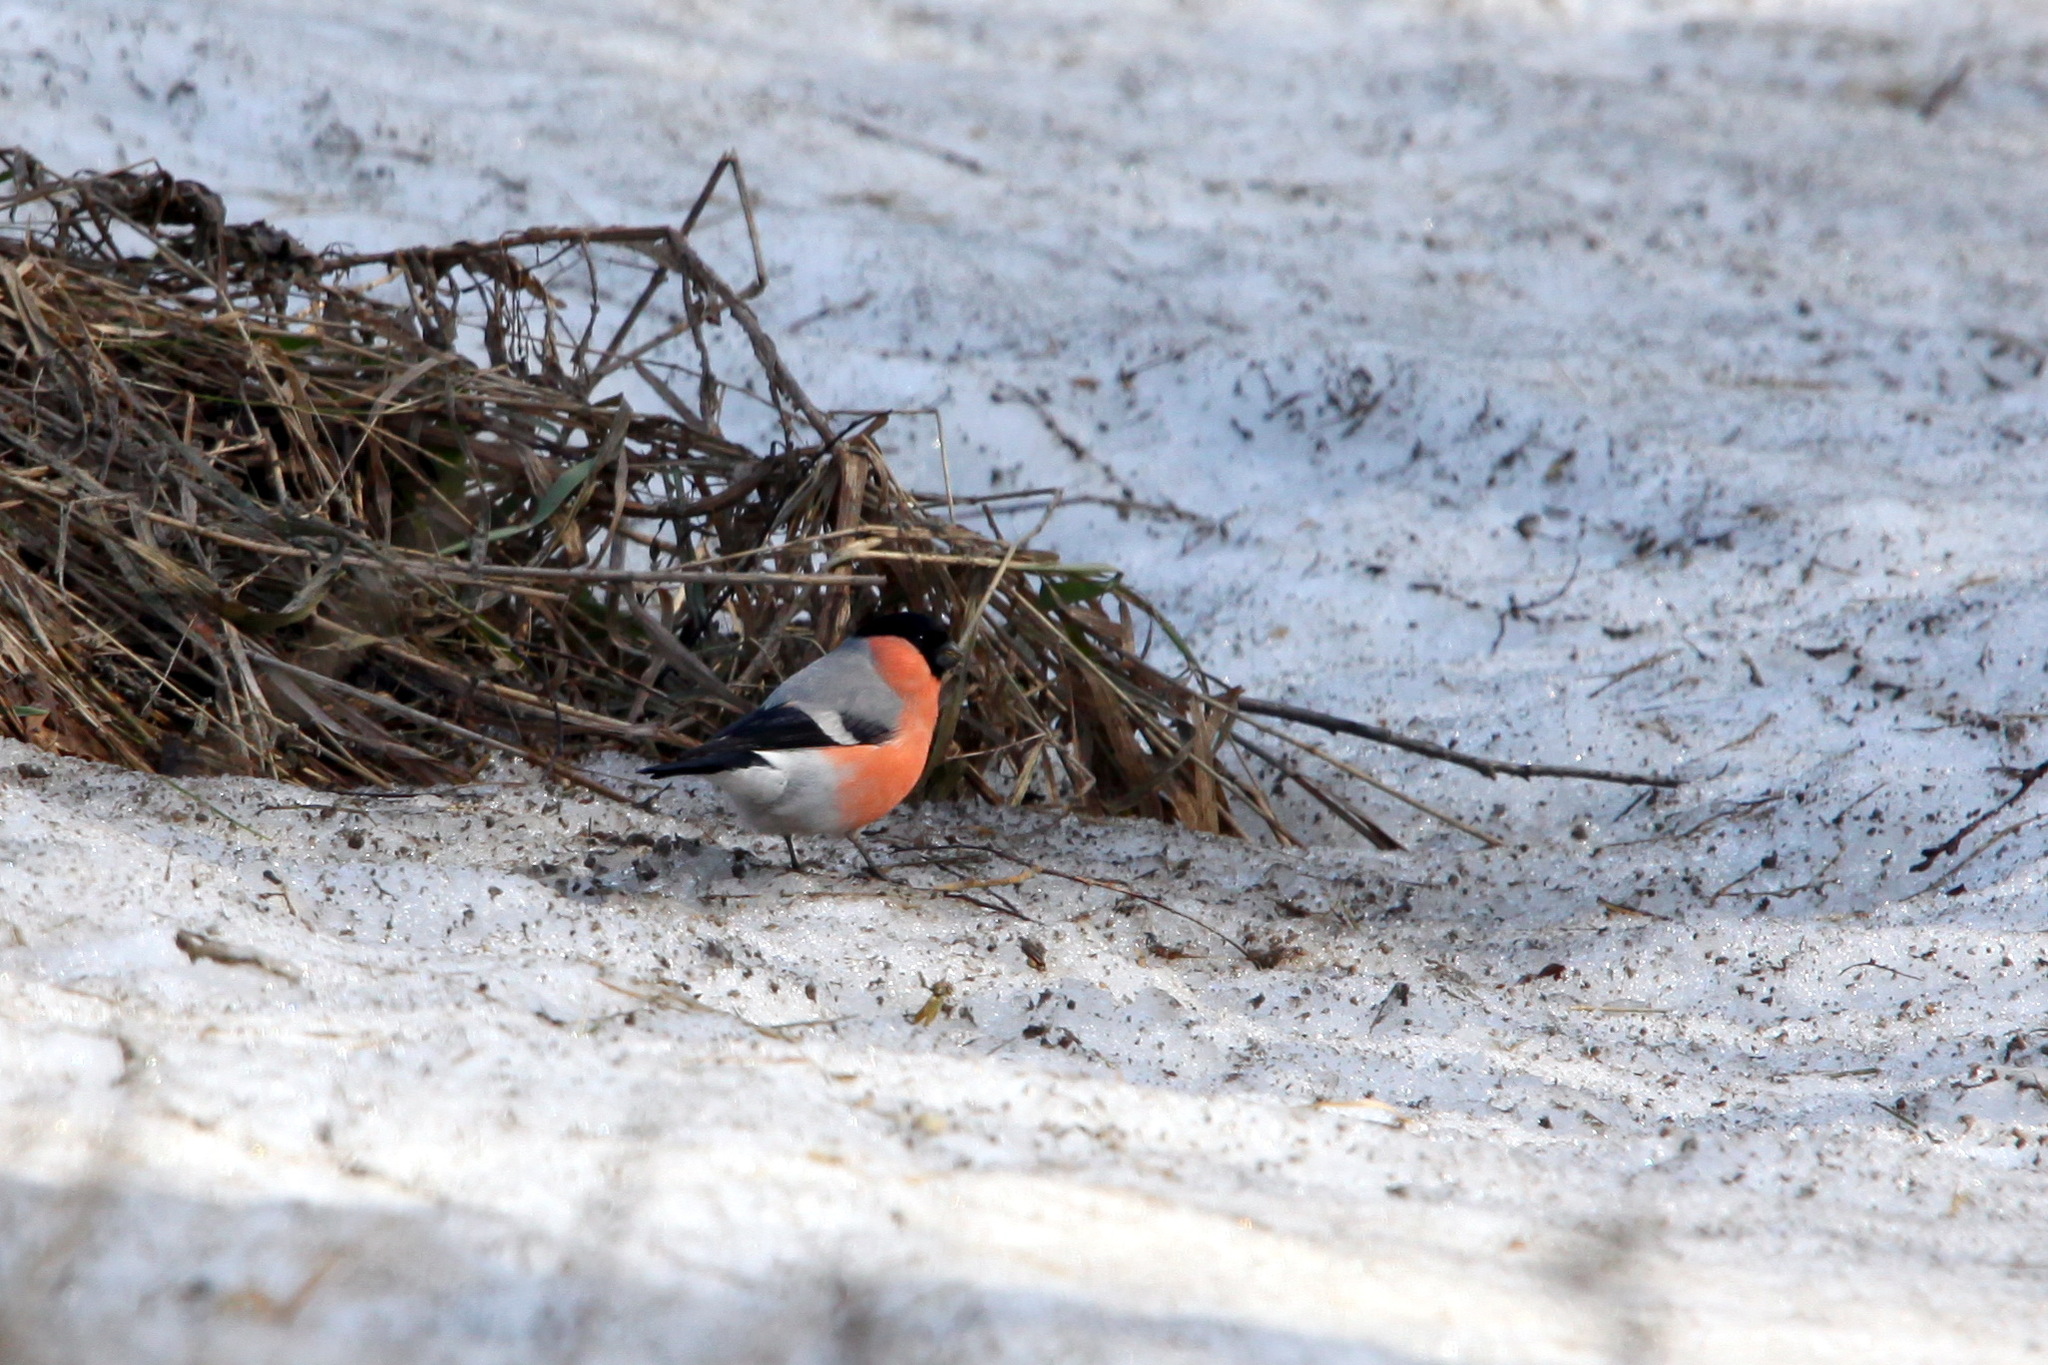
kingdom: Animalia
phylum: Chordata
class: Aves
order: Passeriformes
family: Fringillidae
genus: Pyrrhula
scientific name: Pyrrhula pyrrhula
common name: Eurasian bullfinch
